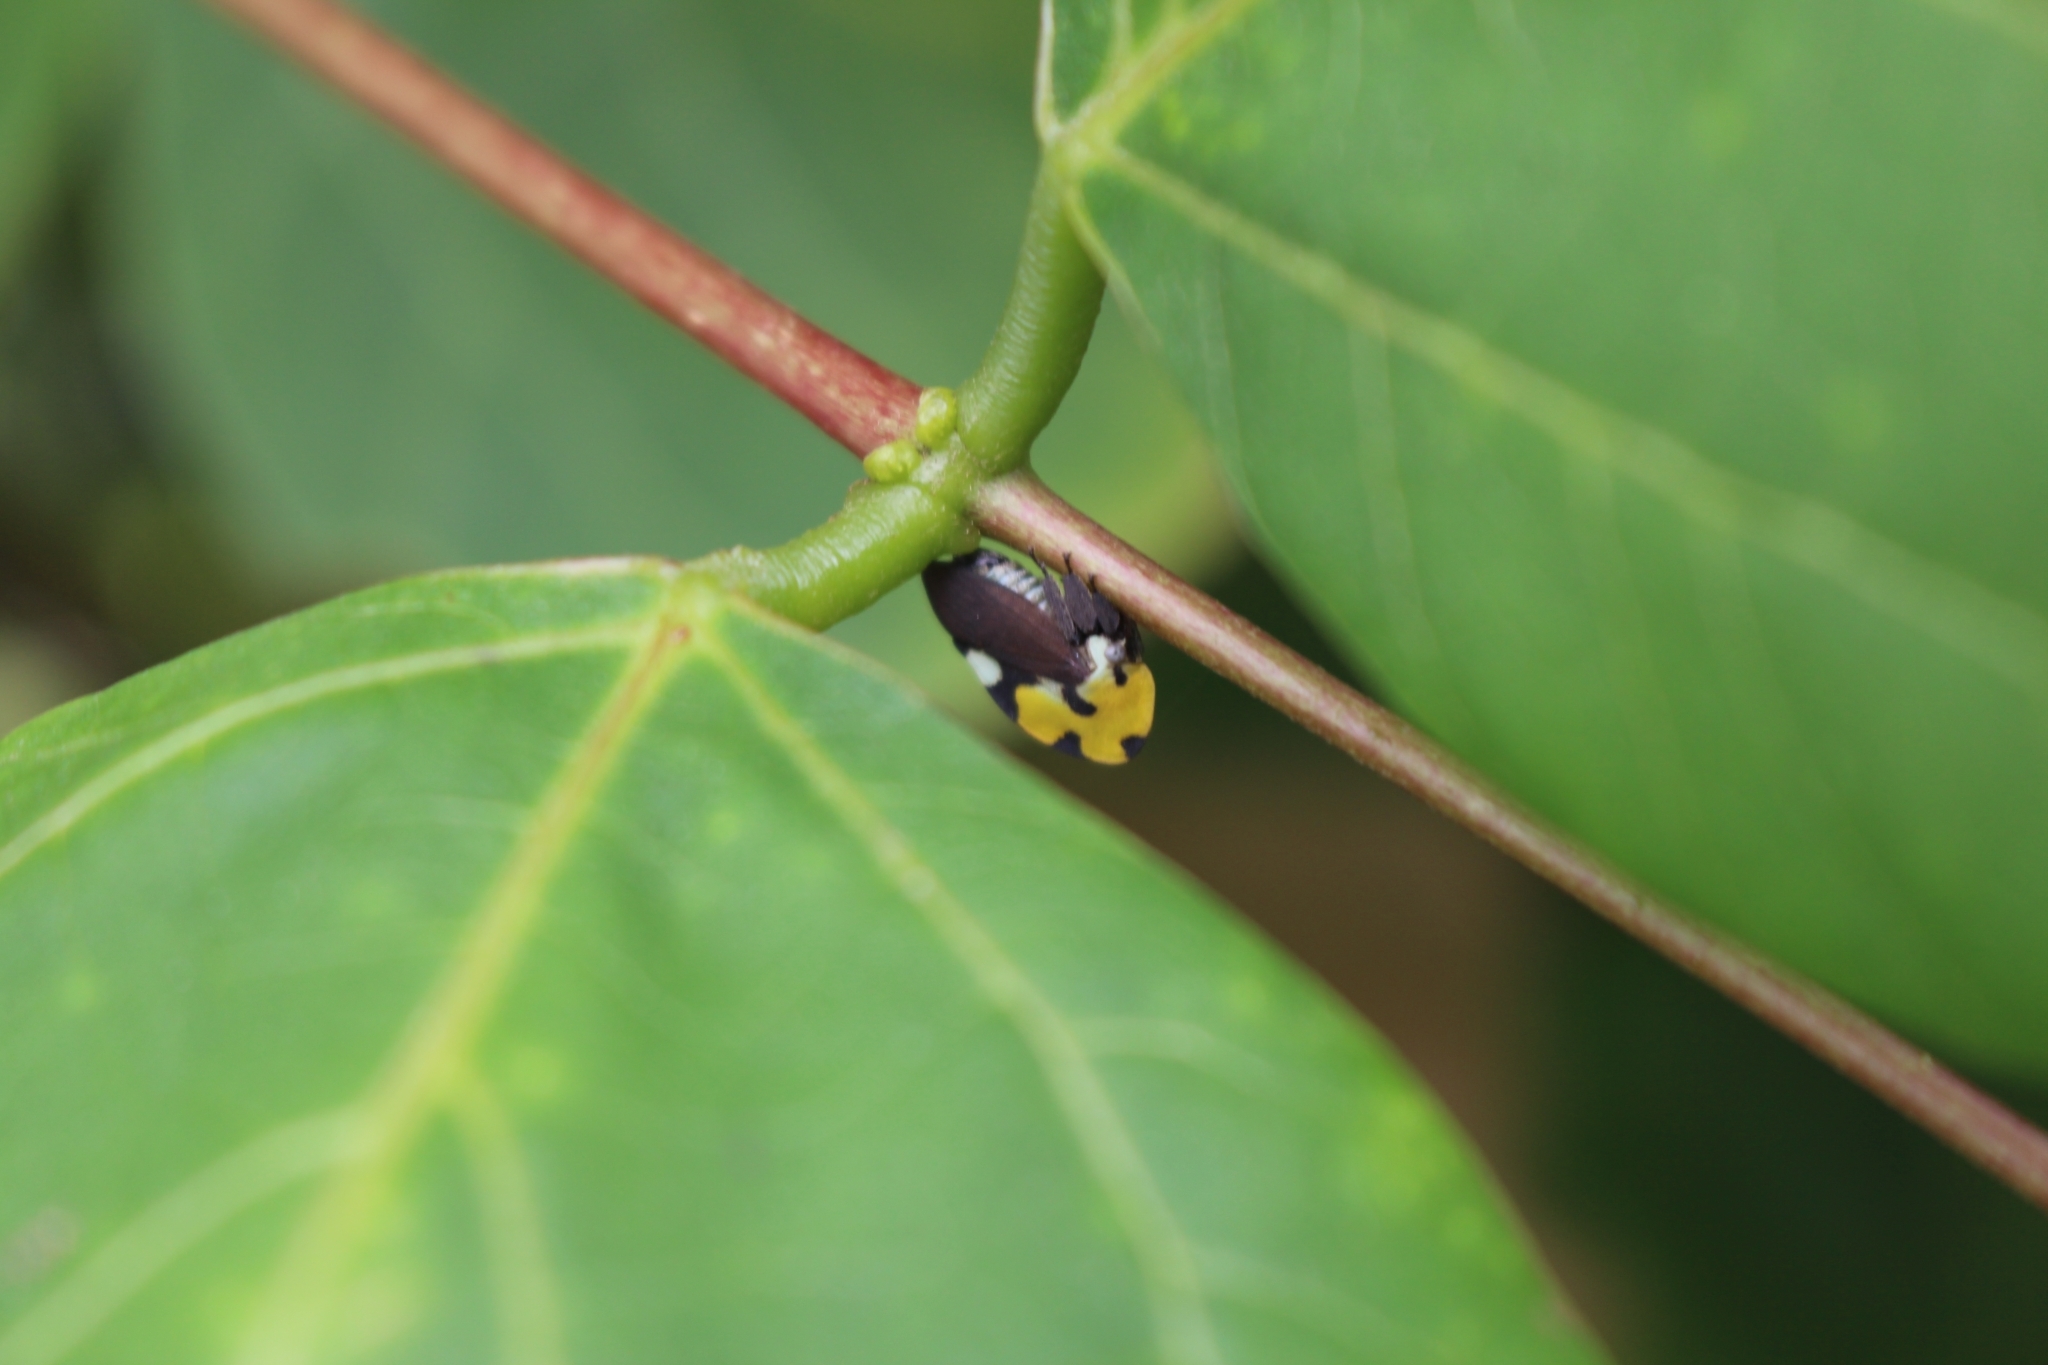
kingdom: Animalia
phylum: Arthropoda
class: Insecta
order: Hemiptera
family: Membracidae
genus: Membracis
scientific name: Membracis mexicana
